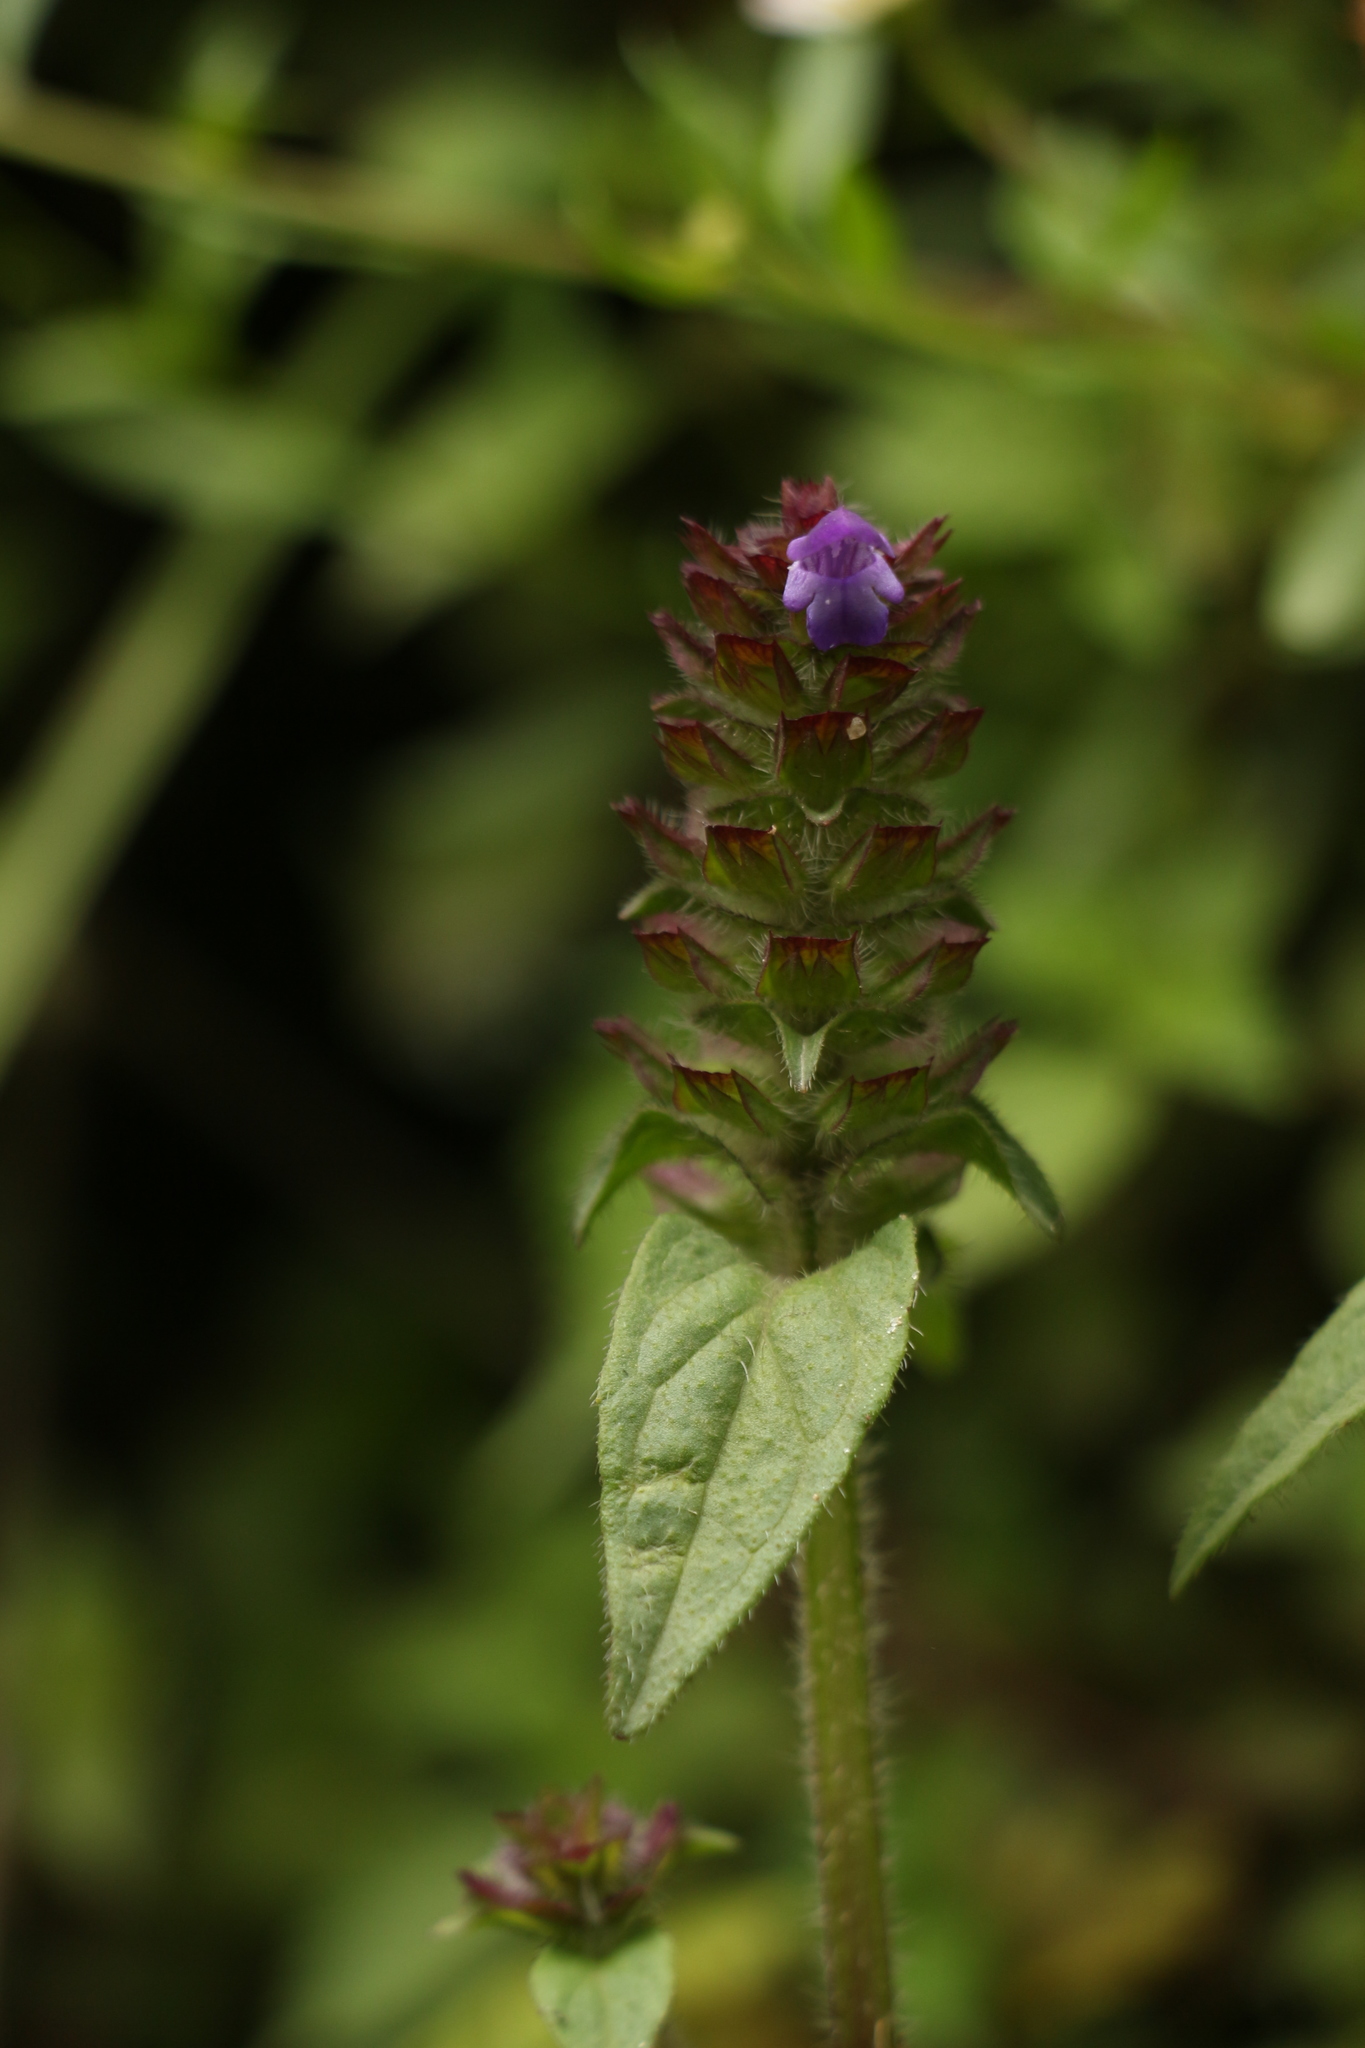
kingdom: Plantae
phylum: Tracheophyta
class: Magnoliopsida
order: Lamiales
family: Lamiaceae
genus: Prunella
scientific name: Prunella vulgaris
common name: Heal-all
